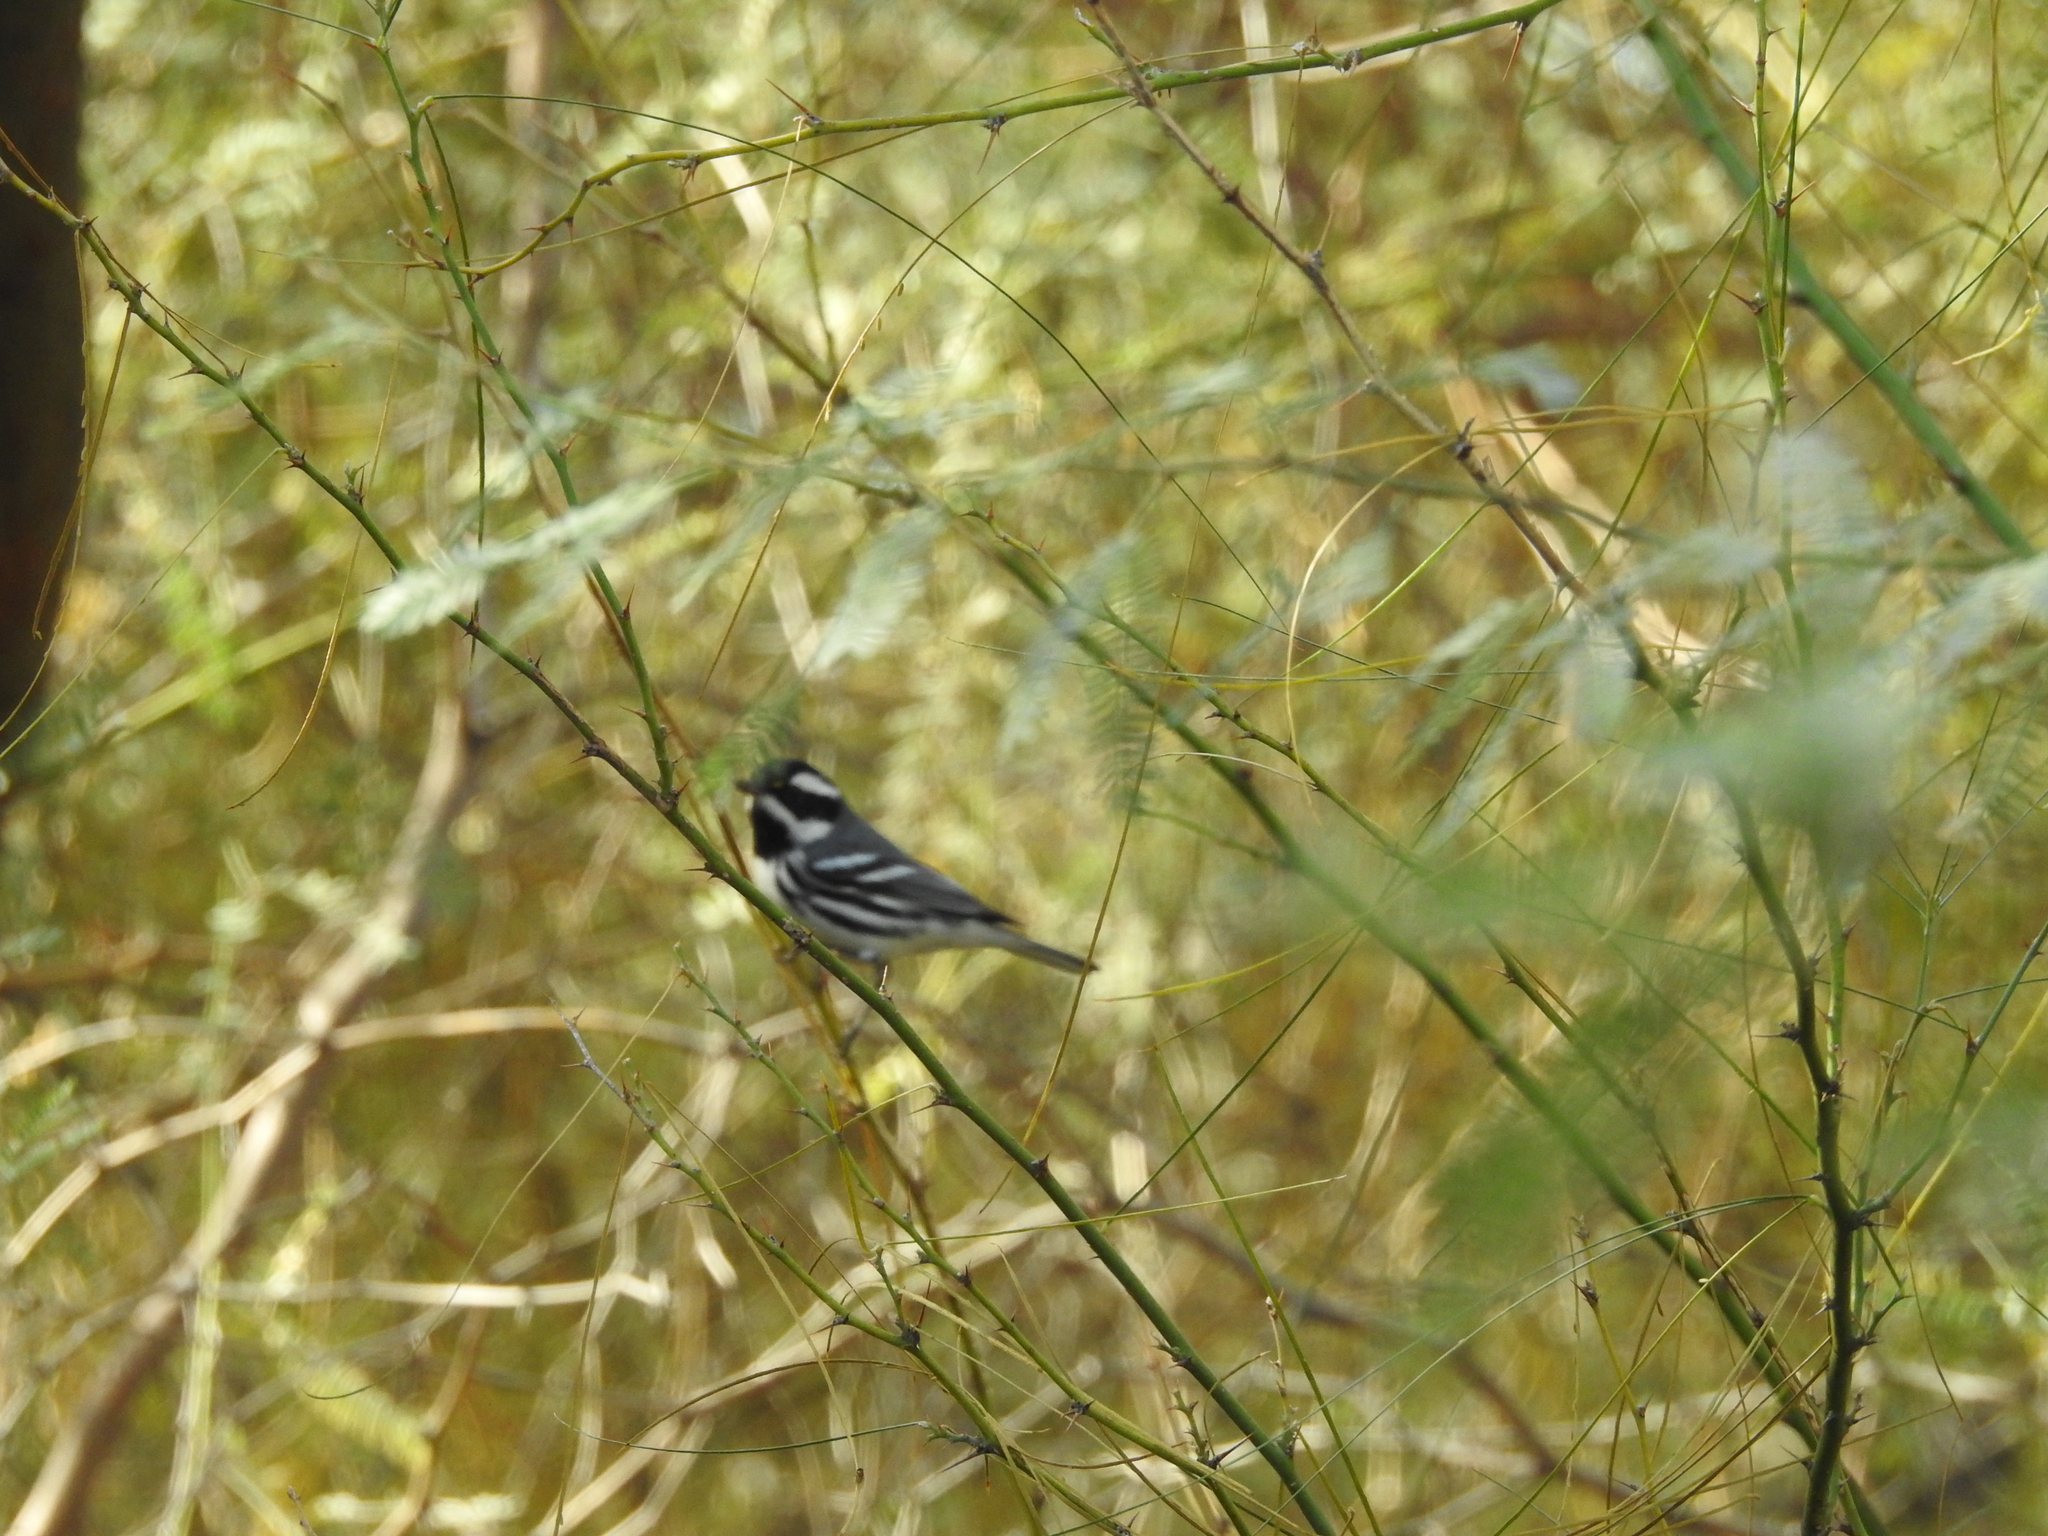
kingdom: Animalia
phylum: Chordata
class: Aves
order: Passeriformes
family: Parulidae
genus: Setophaga
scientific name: Setophaga nigrescens
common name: Black-throated gray warbler
